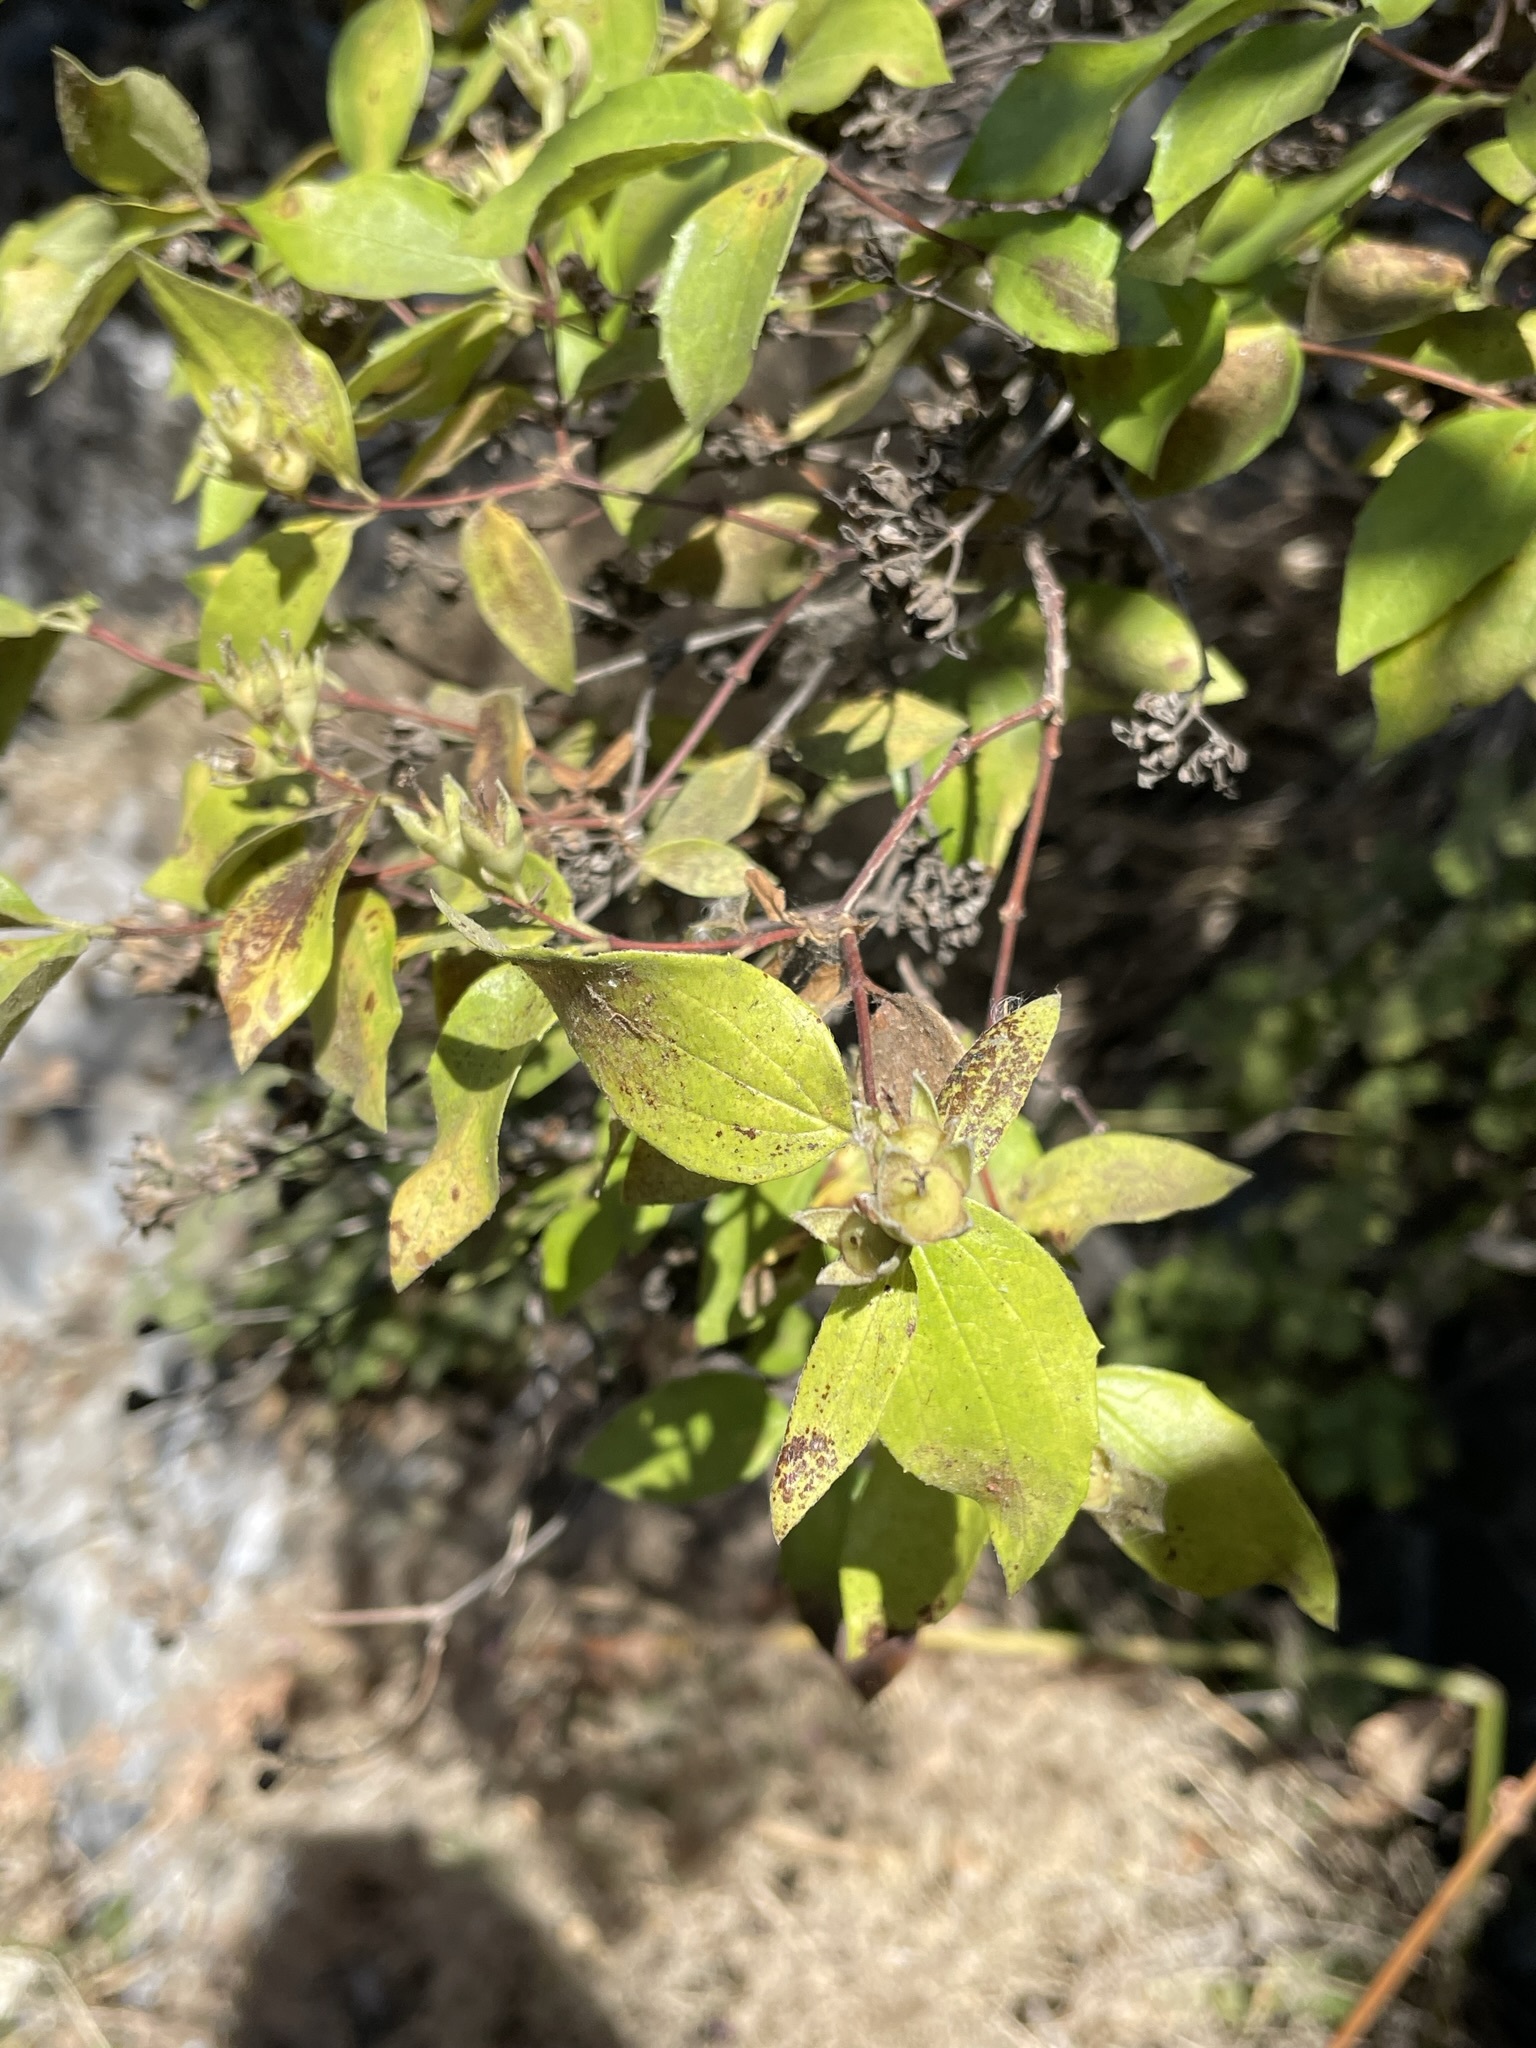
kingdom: Plantae
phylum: Tracheophyta
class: Magnoliopsida
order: Cornales
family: Hydrangeaceae
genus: Philadelphus
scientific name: Philadelphus lewisii
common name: Lewis's mock orange
